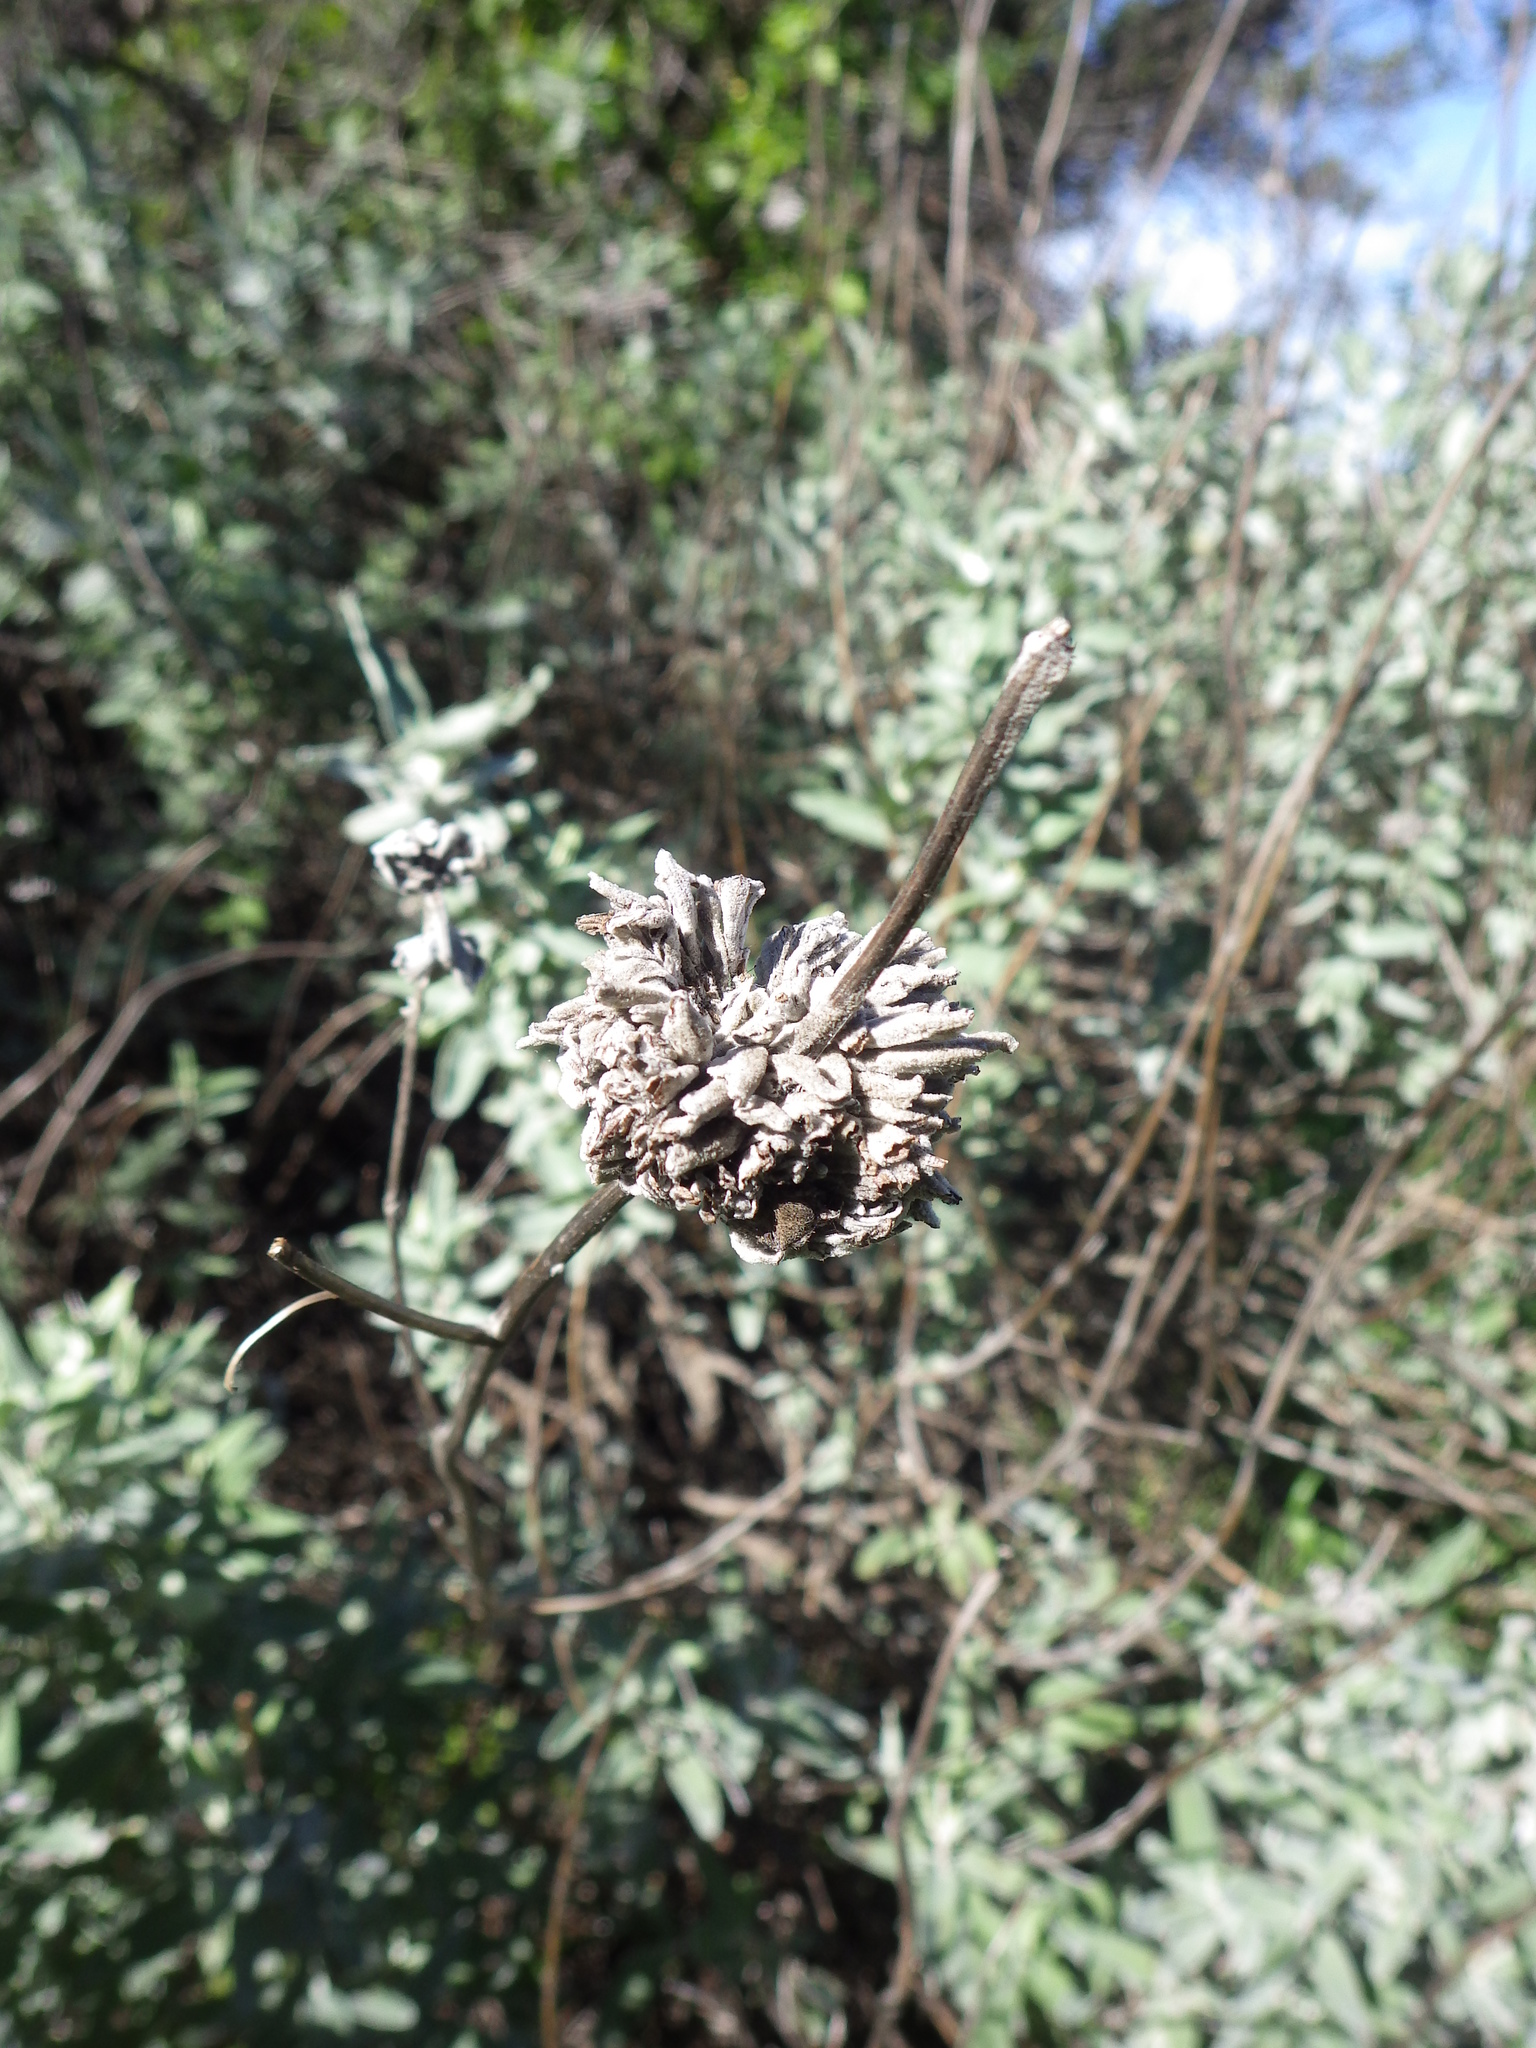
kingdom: Plantae
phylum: Tracheophyta
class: Magnoliopsida
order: Lamiales
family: Lamiaceae
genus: Salvia
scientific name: Salvia leucophylla
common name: Purple sage
